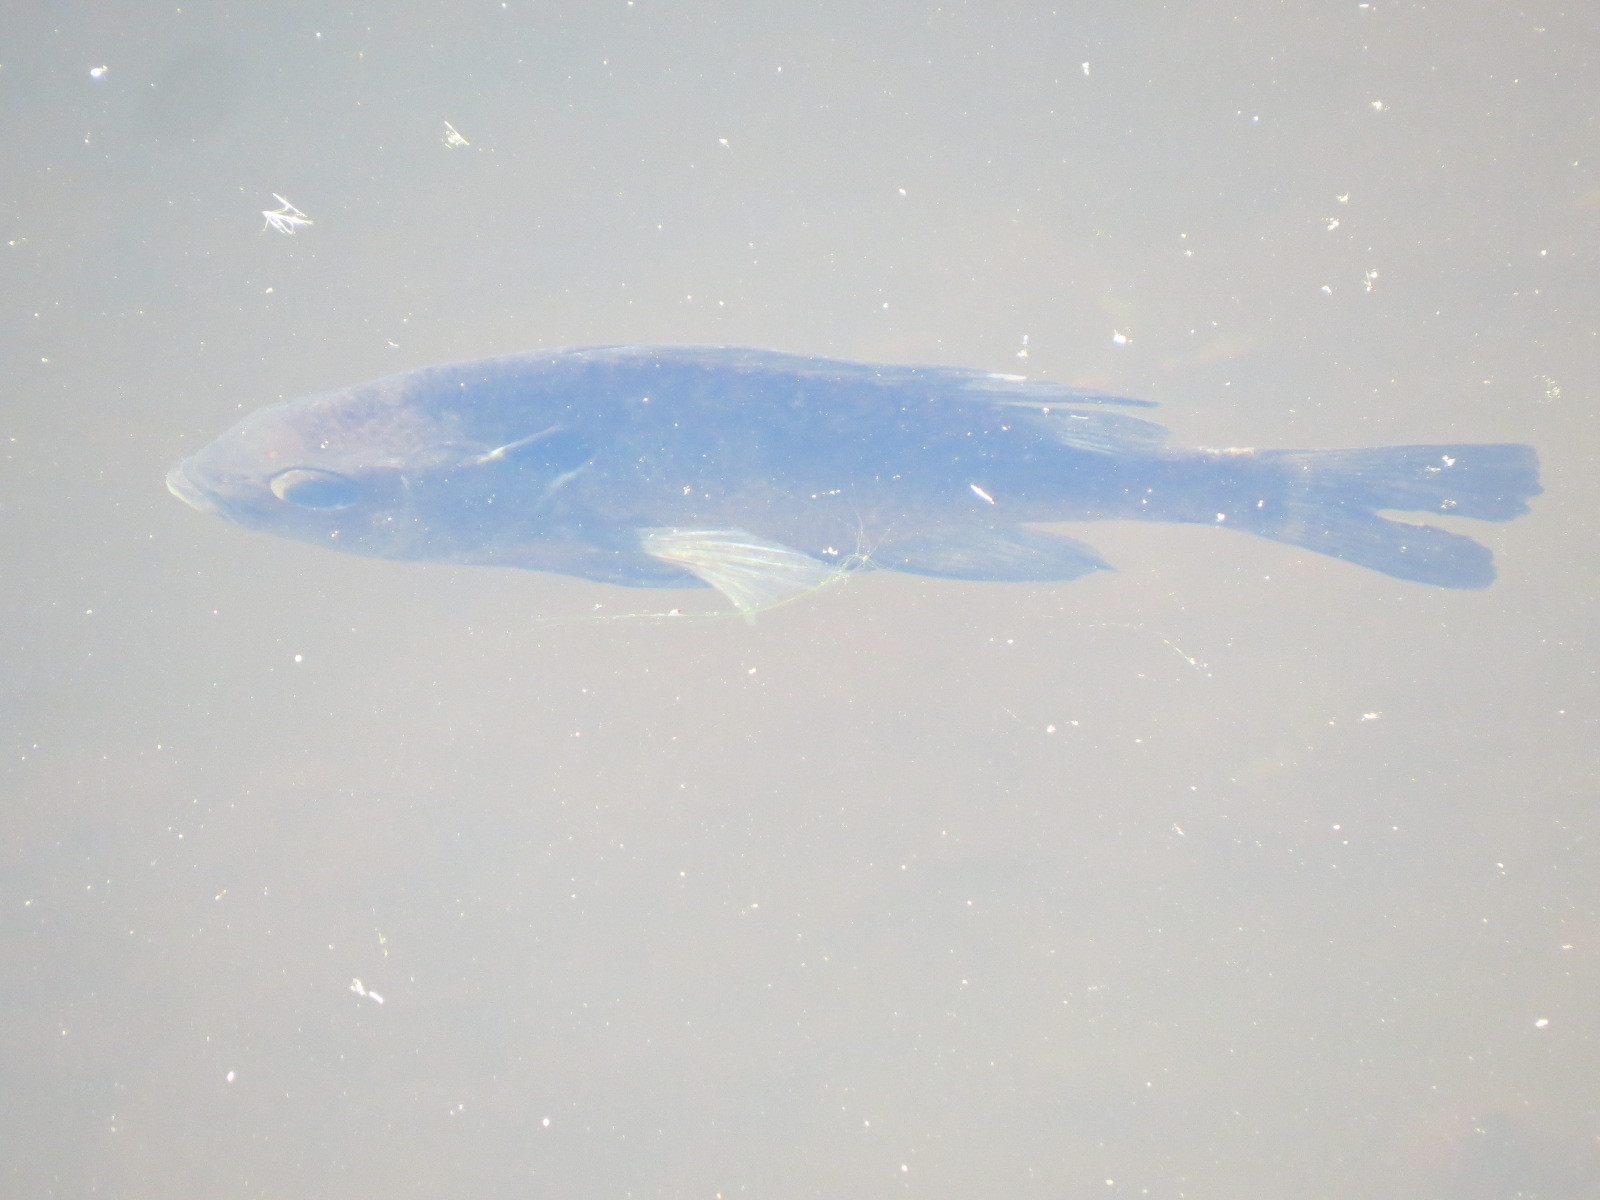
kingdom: Animalia
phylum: Chordata
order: Perciformes
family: Centrarchidae
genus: Lepomis
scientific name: Lepomis macrochirus
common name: Bluegill
